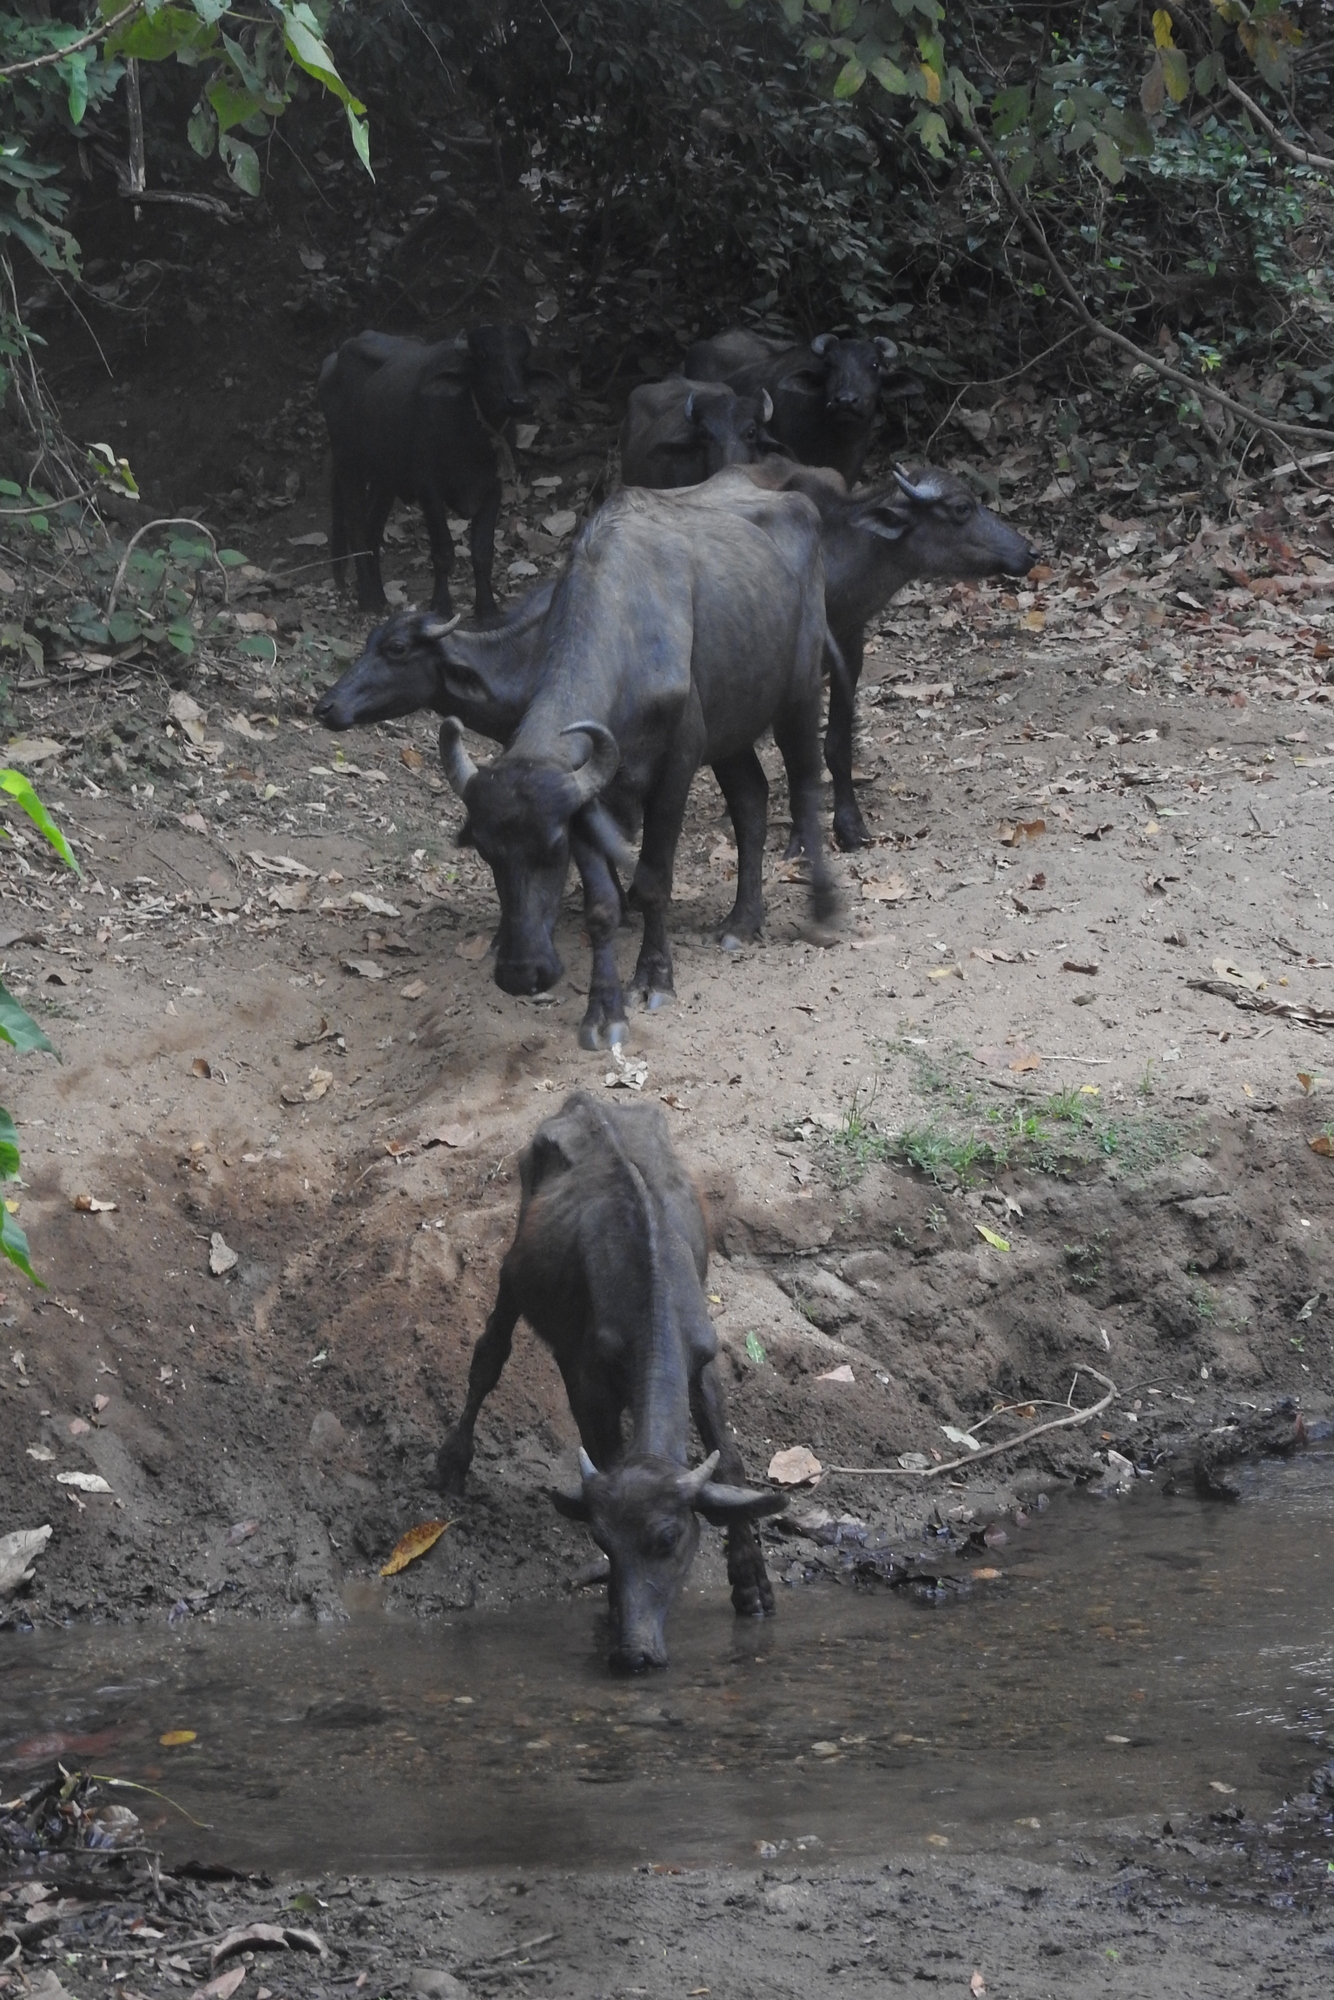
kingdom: Animalia
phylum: Chordata
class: Mammalia
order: Artiodactyla
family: Bovidae
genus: Bubalus
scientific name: Bubalus bubalis
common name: Water buffalo
